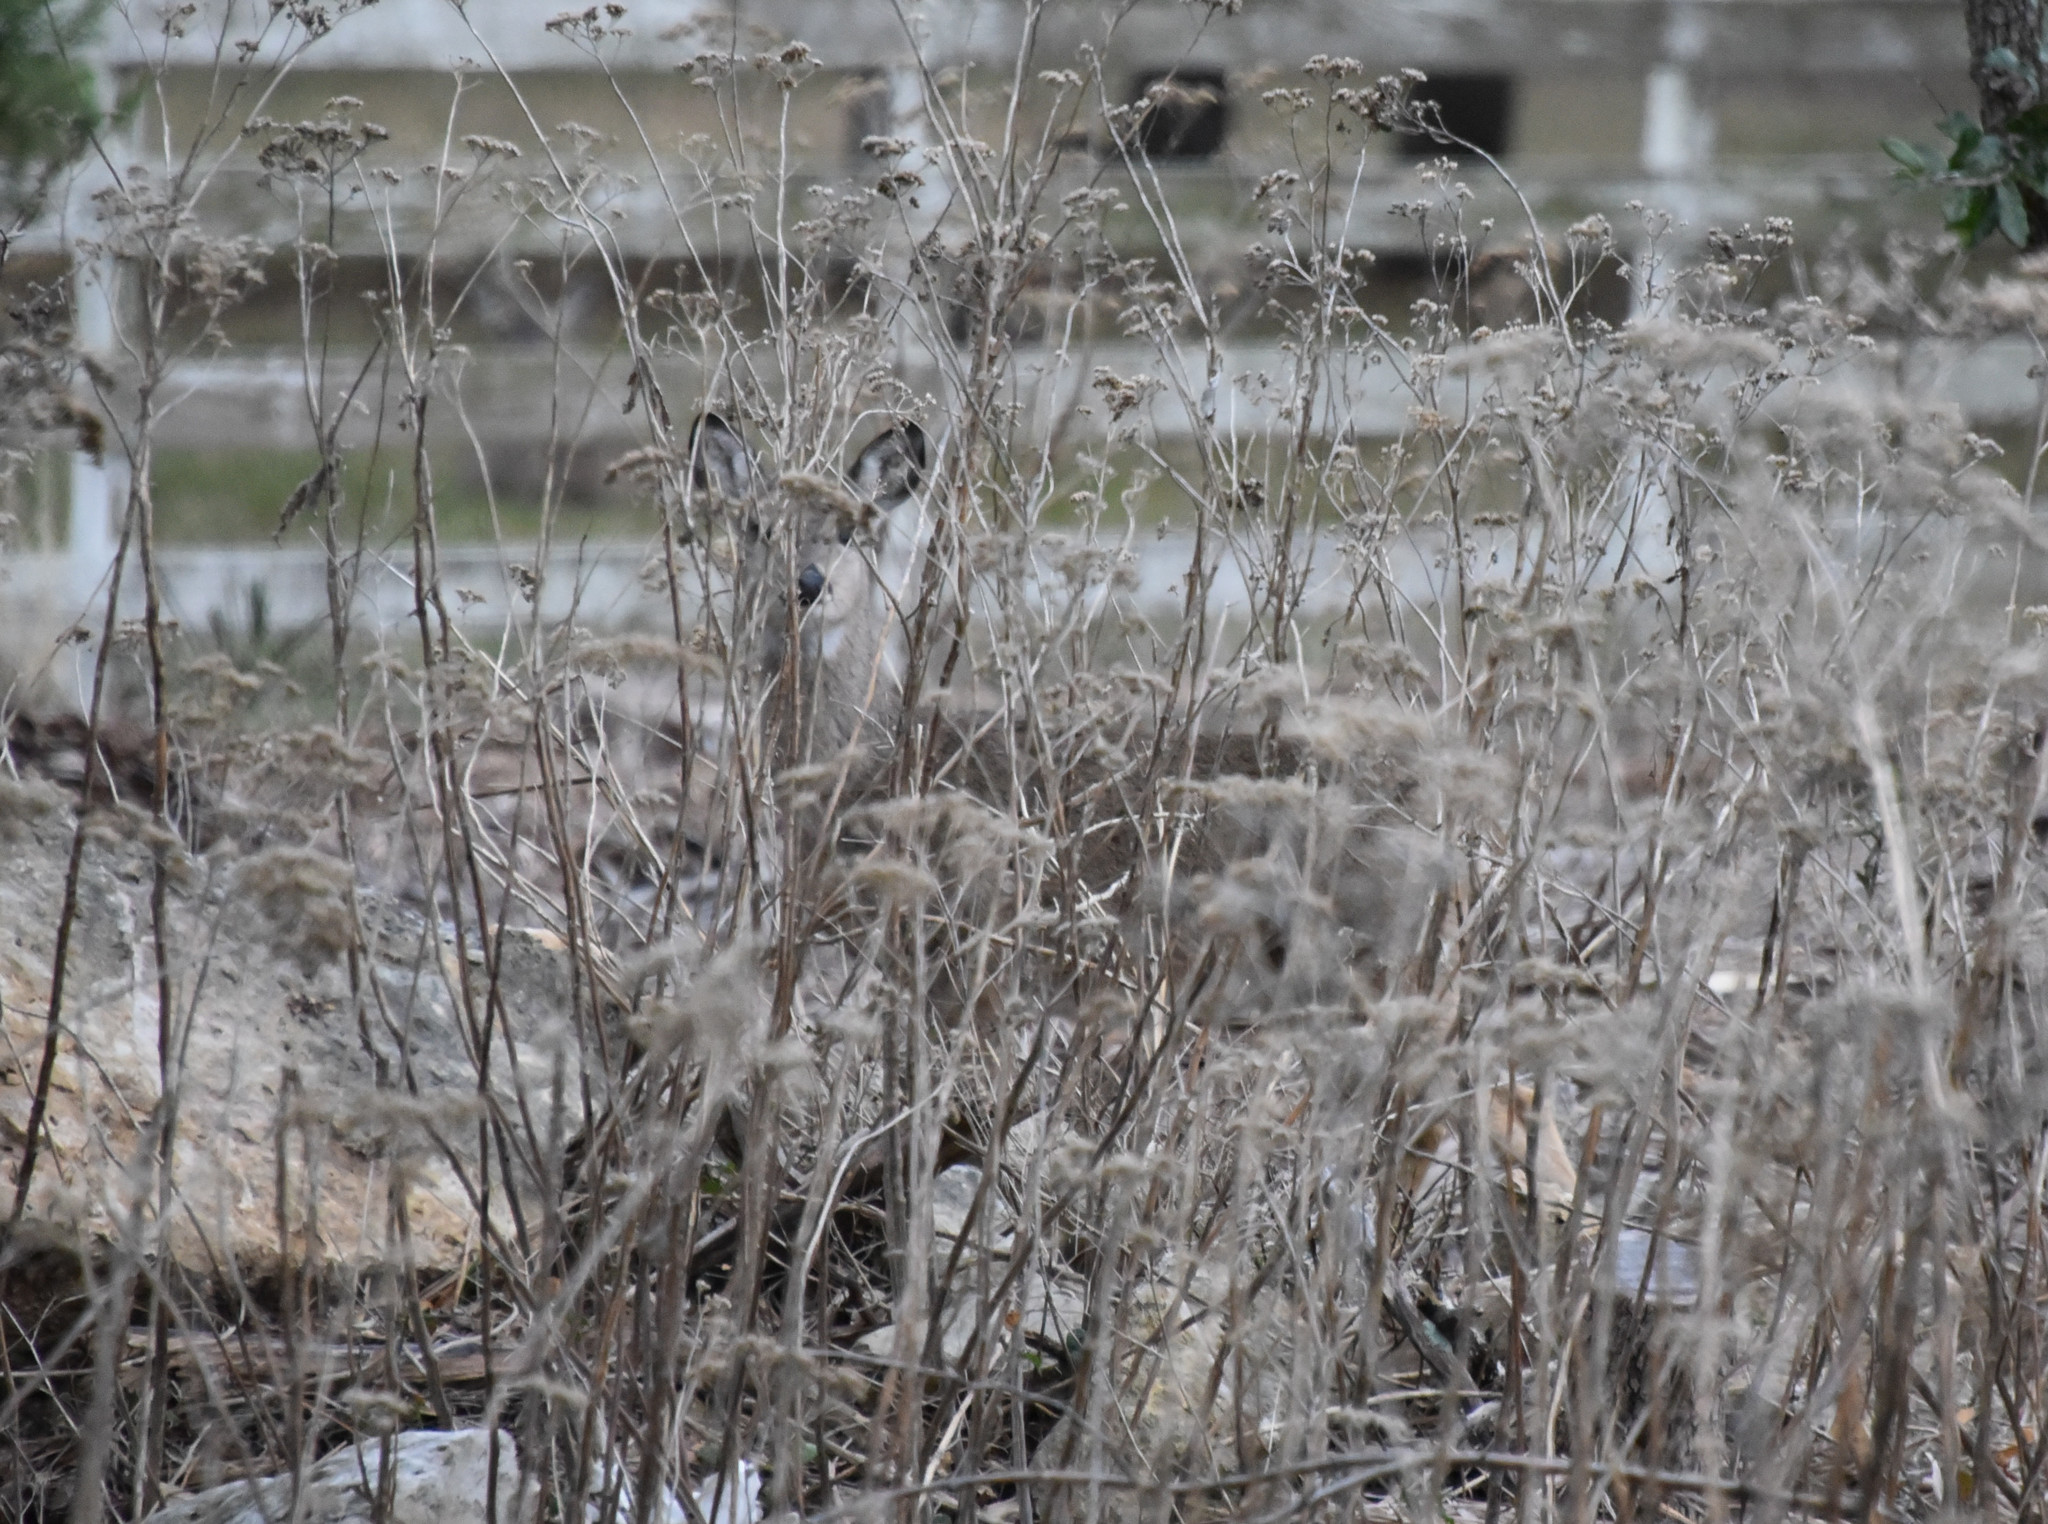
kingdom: Animalia
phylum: Chordata
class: Mammalia
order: Artiodactyla
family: Cervidae
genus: Odocoileus
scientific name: Odocoileus virginianus
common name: White-tailed deer
